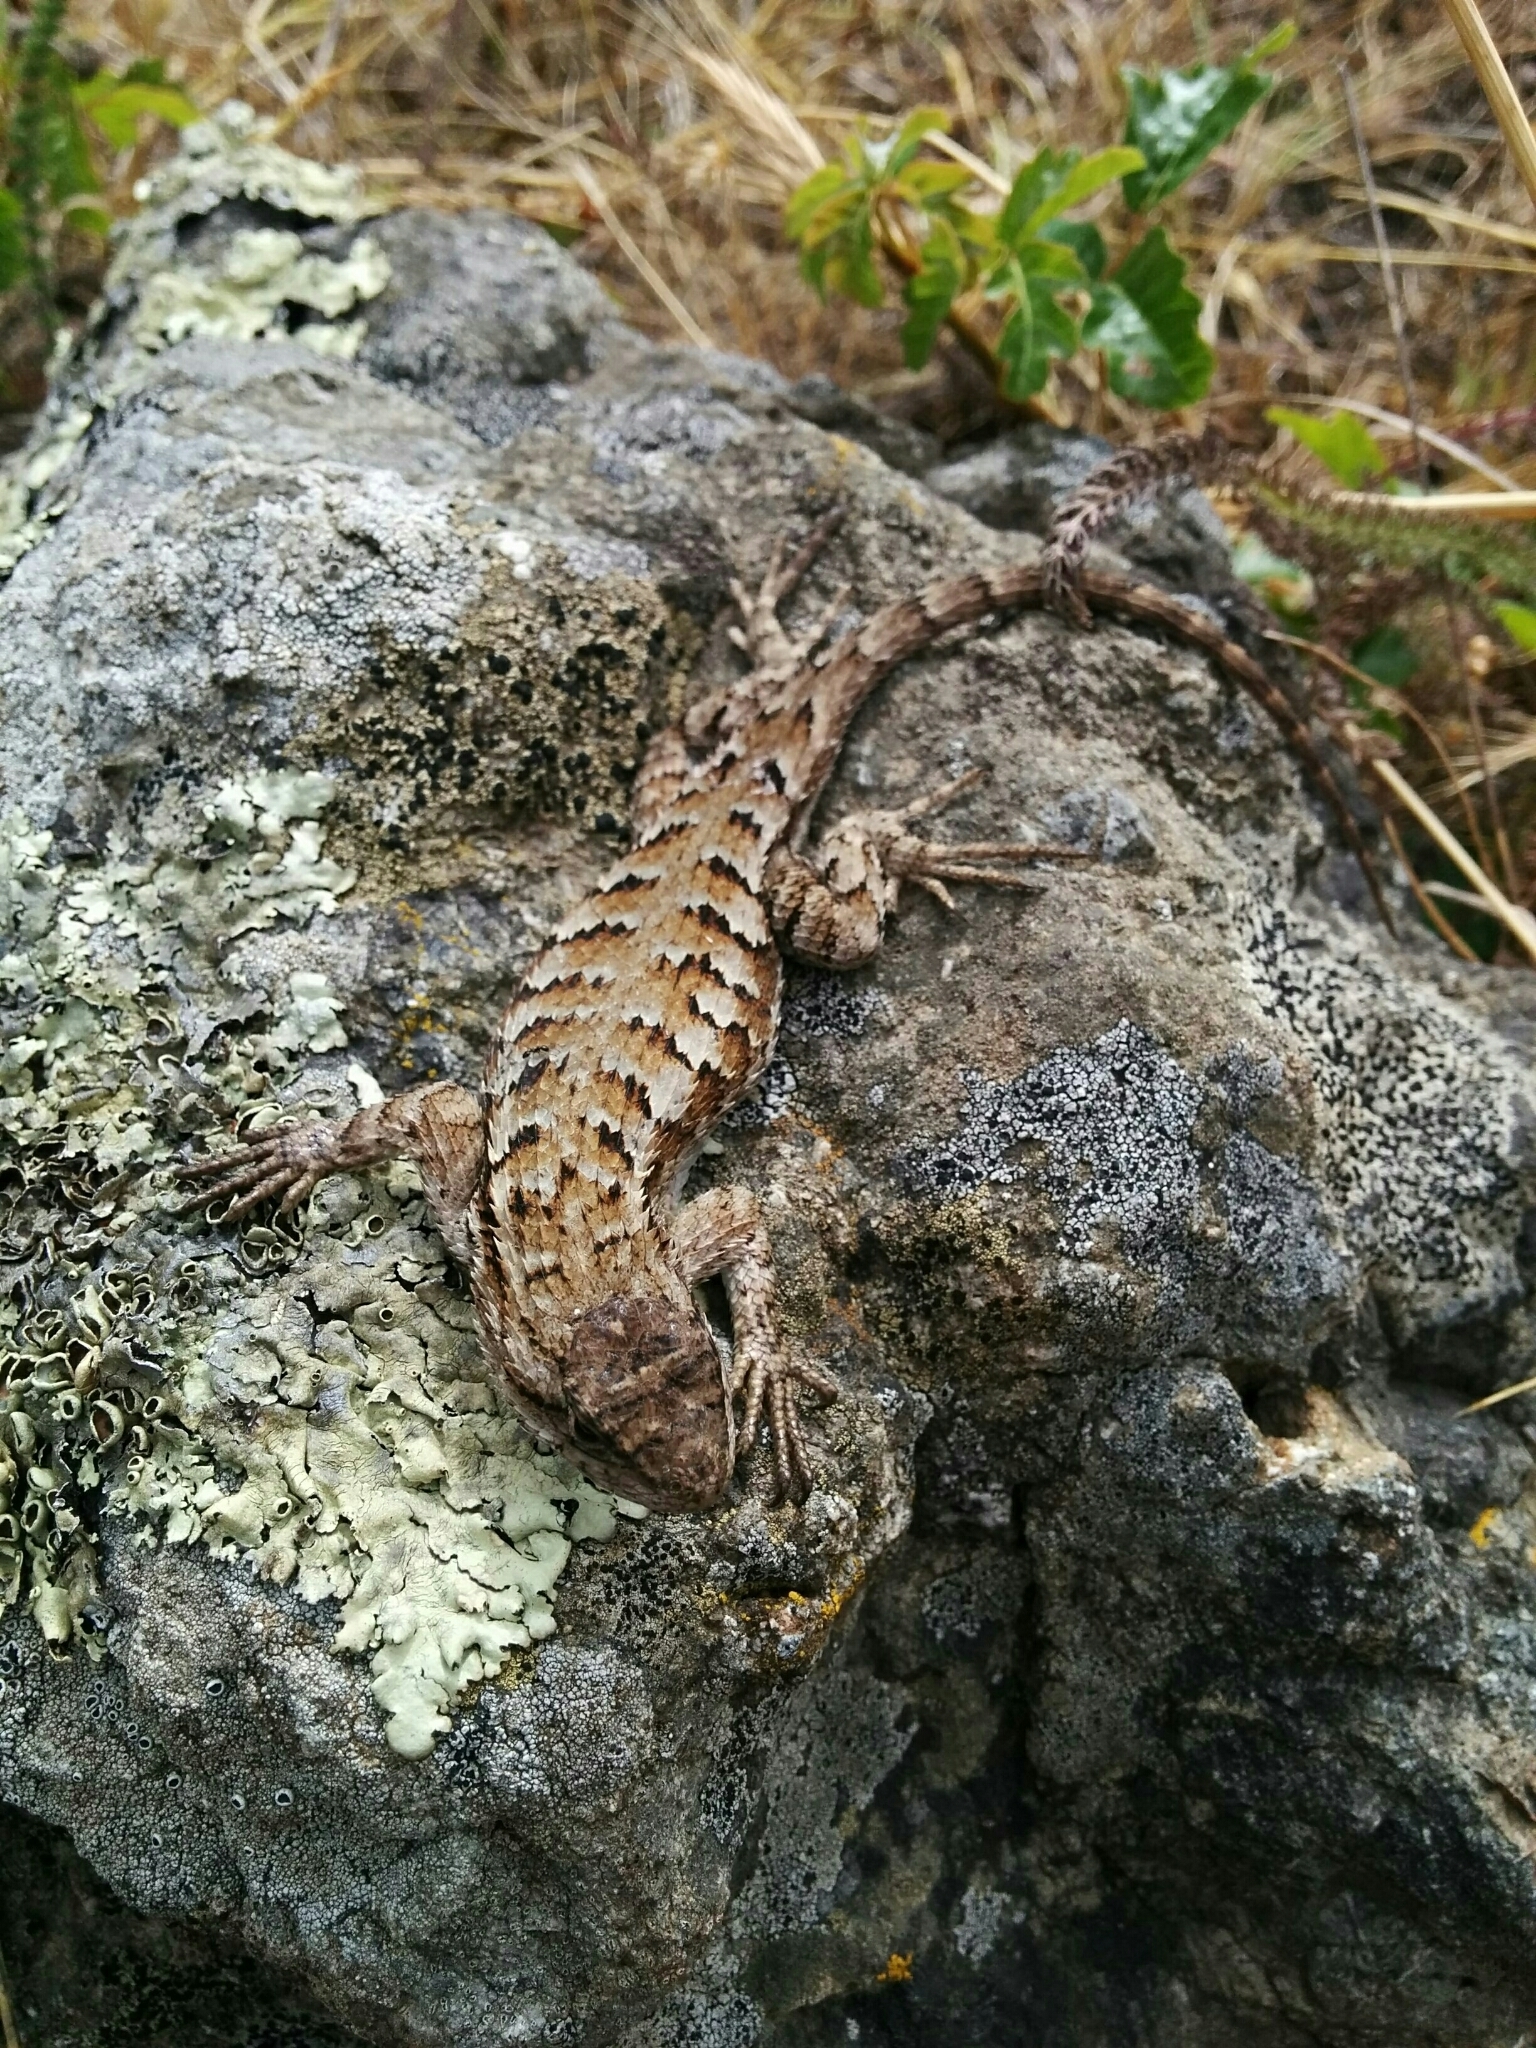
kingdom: Animalia
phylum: Chordata
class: Squamata
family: Phrynosomatidae
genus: Sceloporus
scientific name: Sceloporus occidentalis
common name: Western fence lizard
